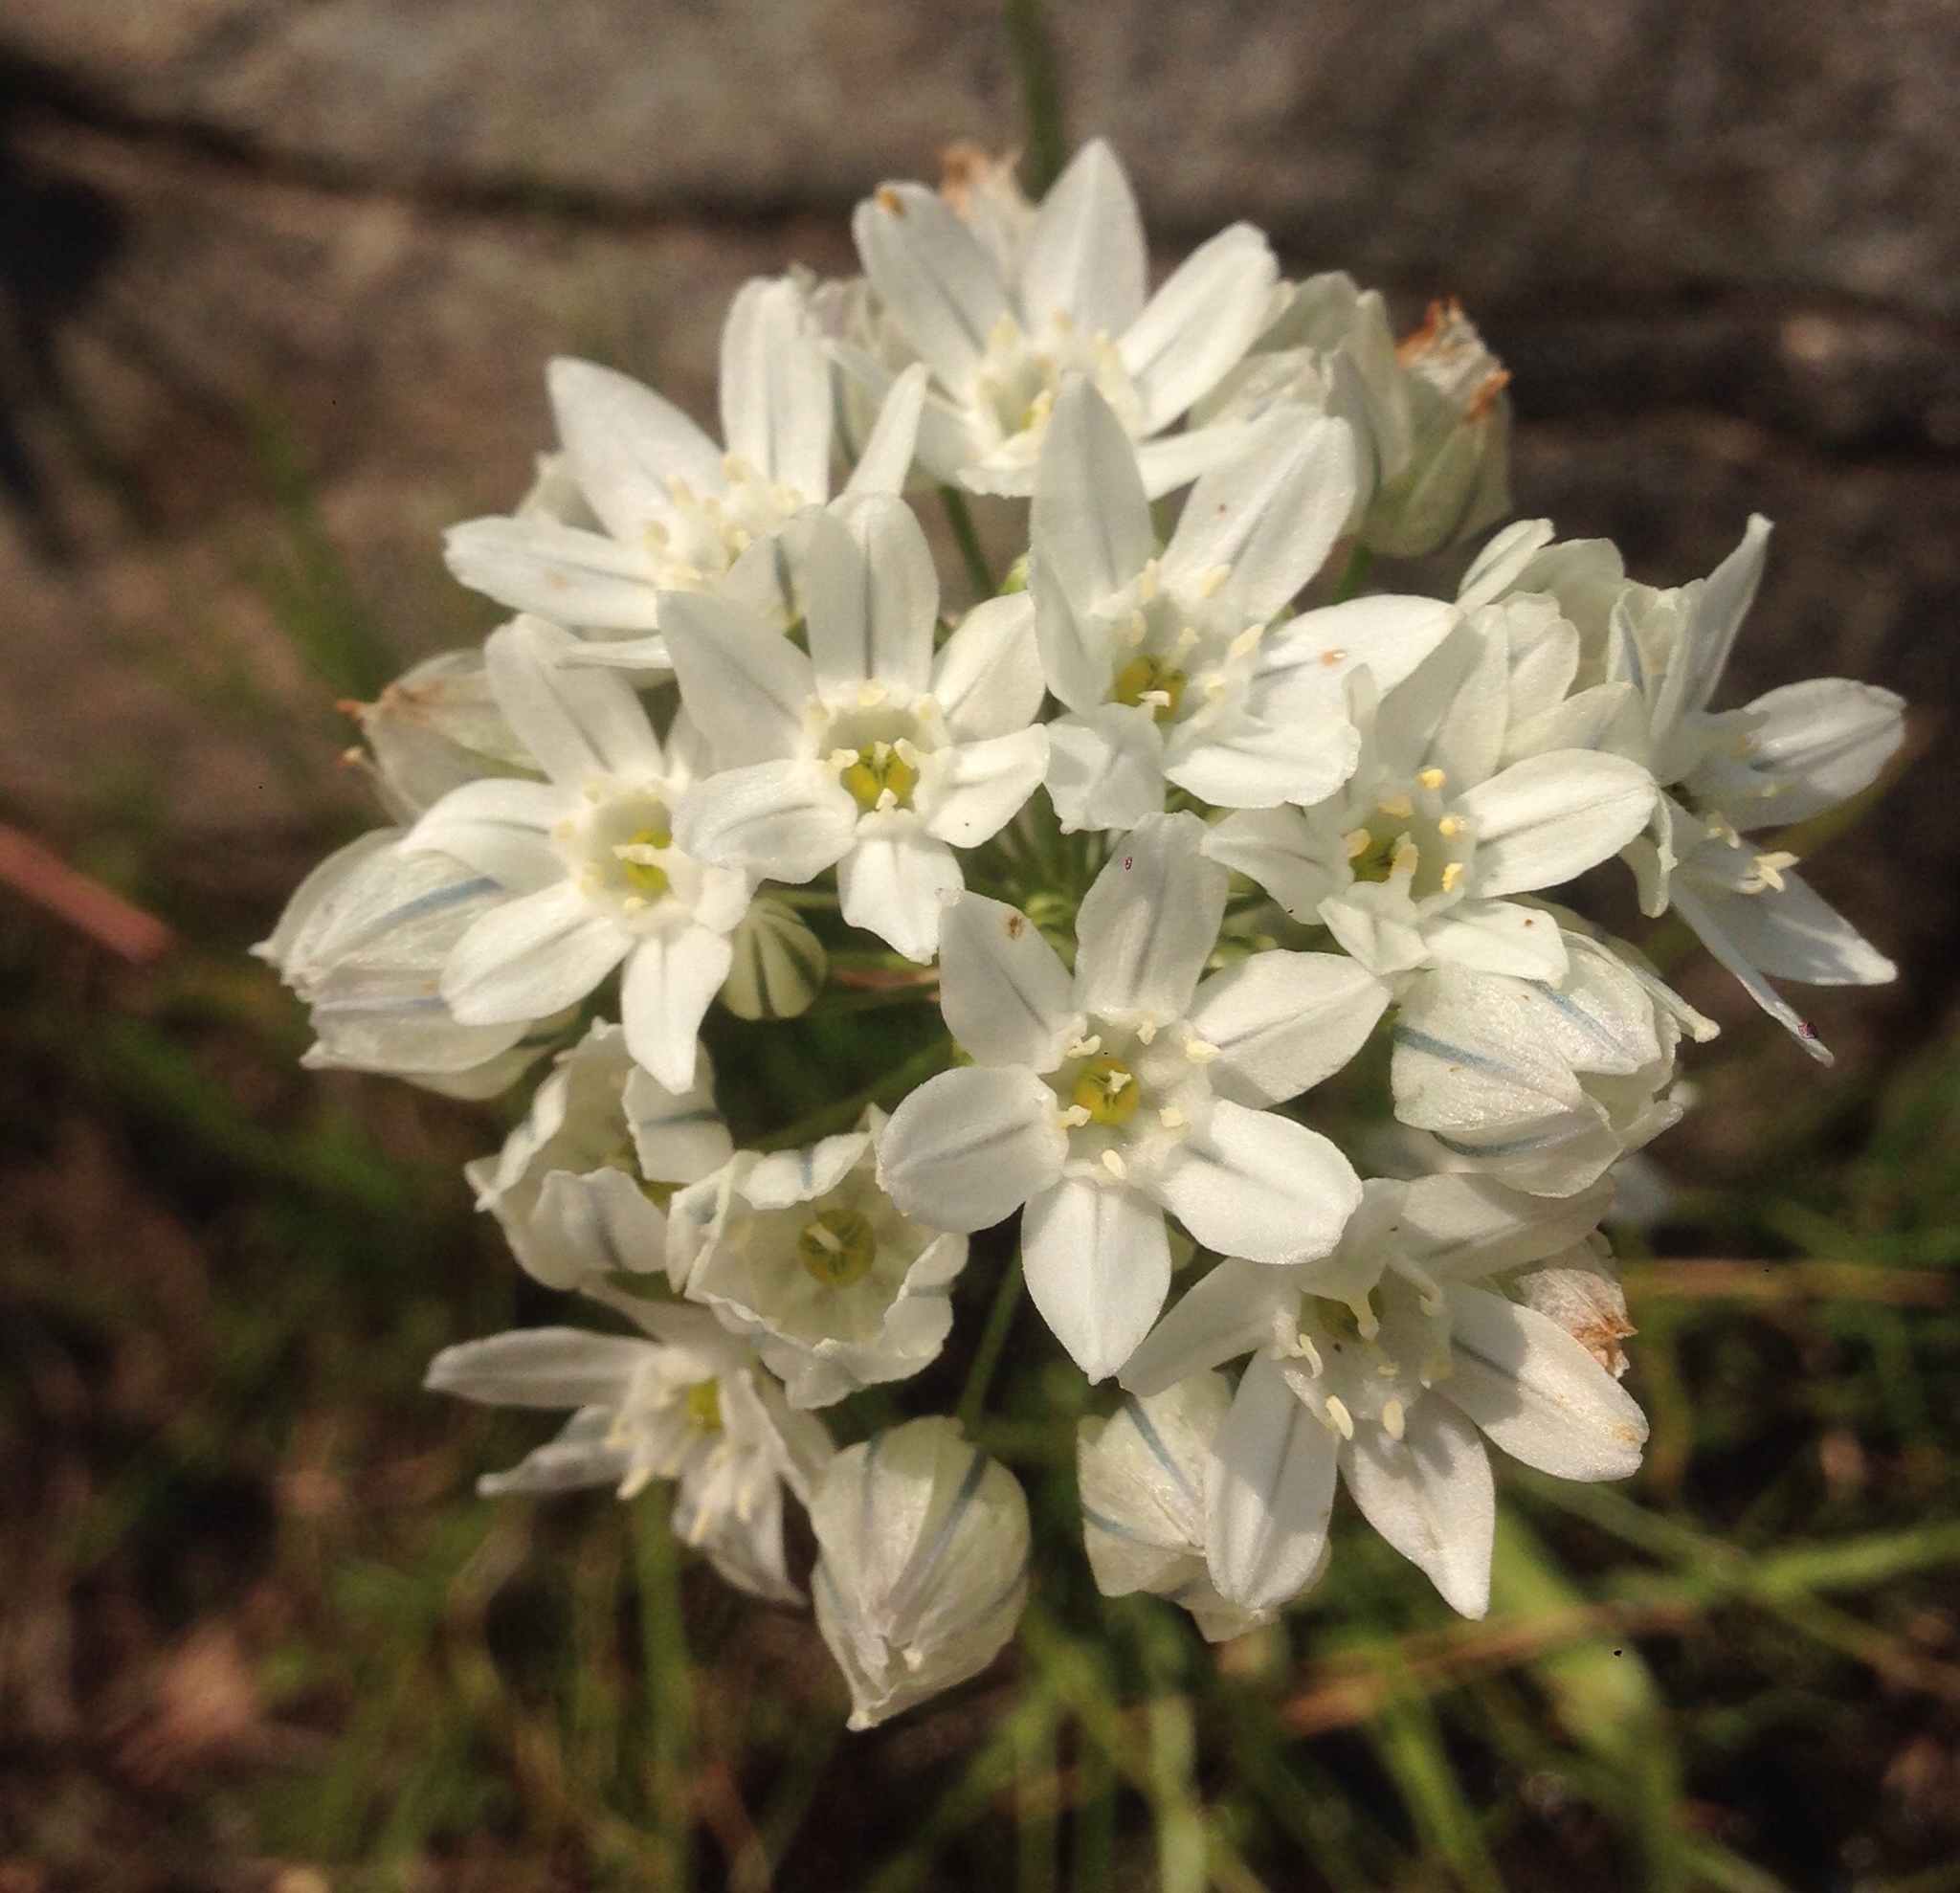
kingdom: Plantae
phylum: Tracheophyta
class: Liliopsida
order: Asparagales
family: Asparagaceae
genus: Triteleia
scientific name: Triteleia hyacinthina
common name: White brodiaea
